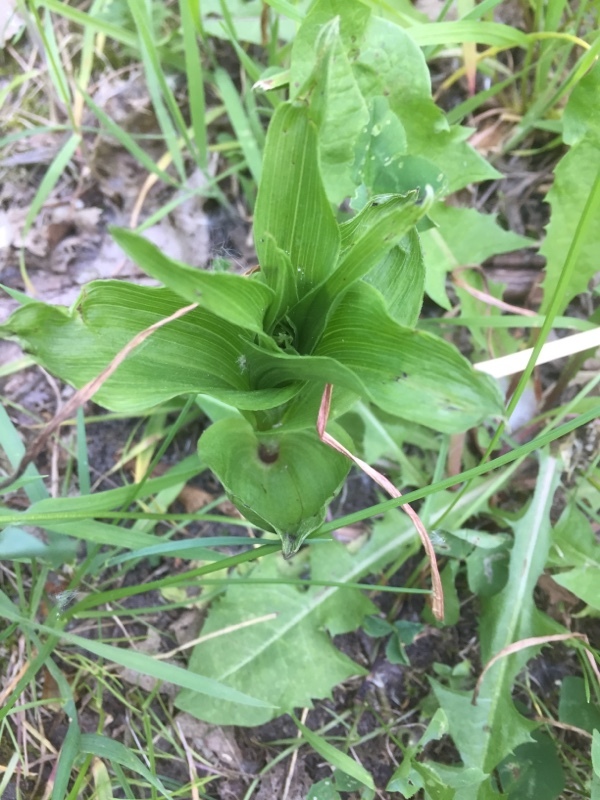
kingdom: Plantae
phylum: Tracheophyta
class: Liliopsida
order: Asparagales
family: Orchidaceae
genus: Epipactis
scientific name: Epipactis helleborine
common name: Broad-leaved helleborine
